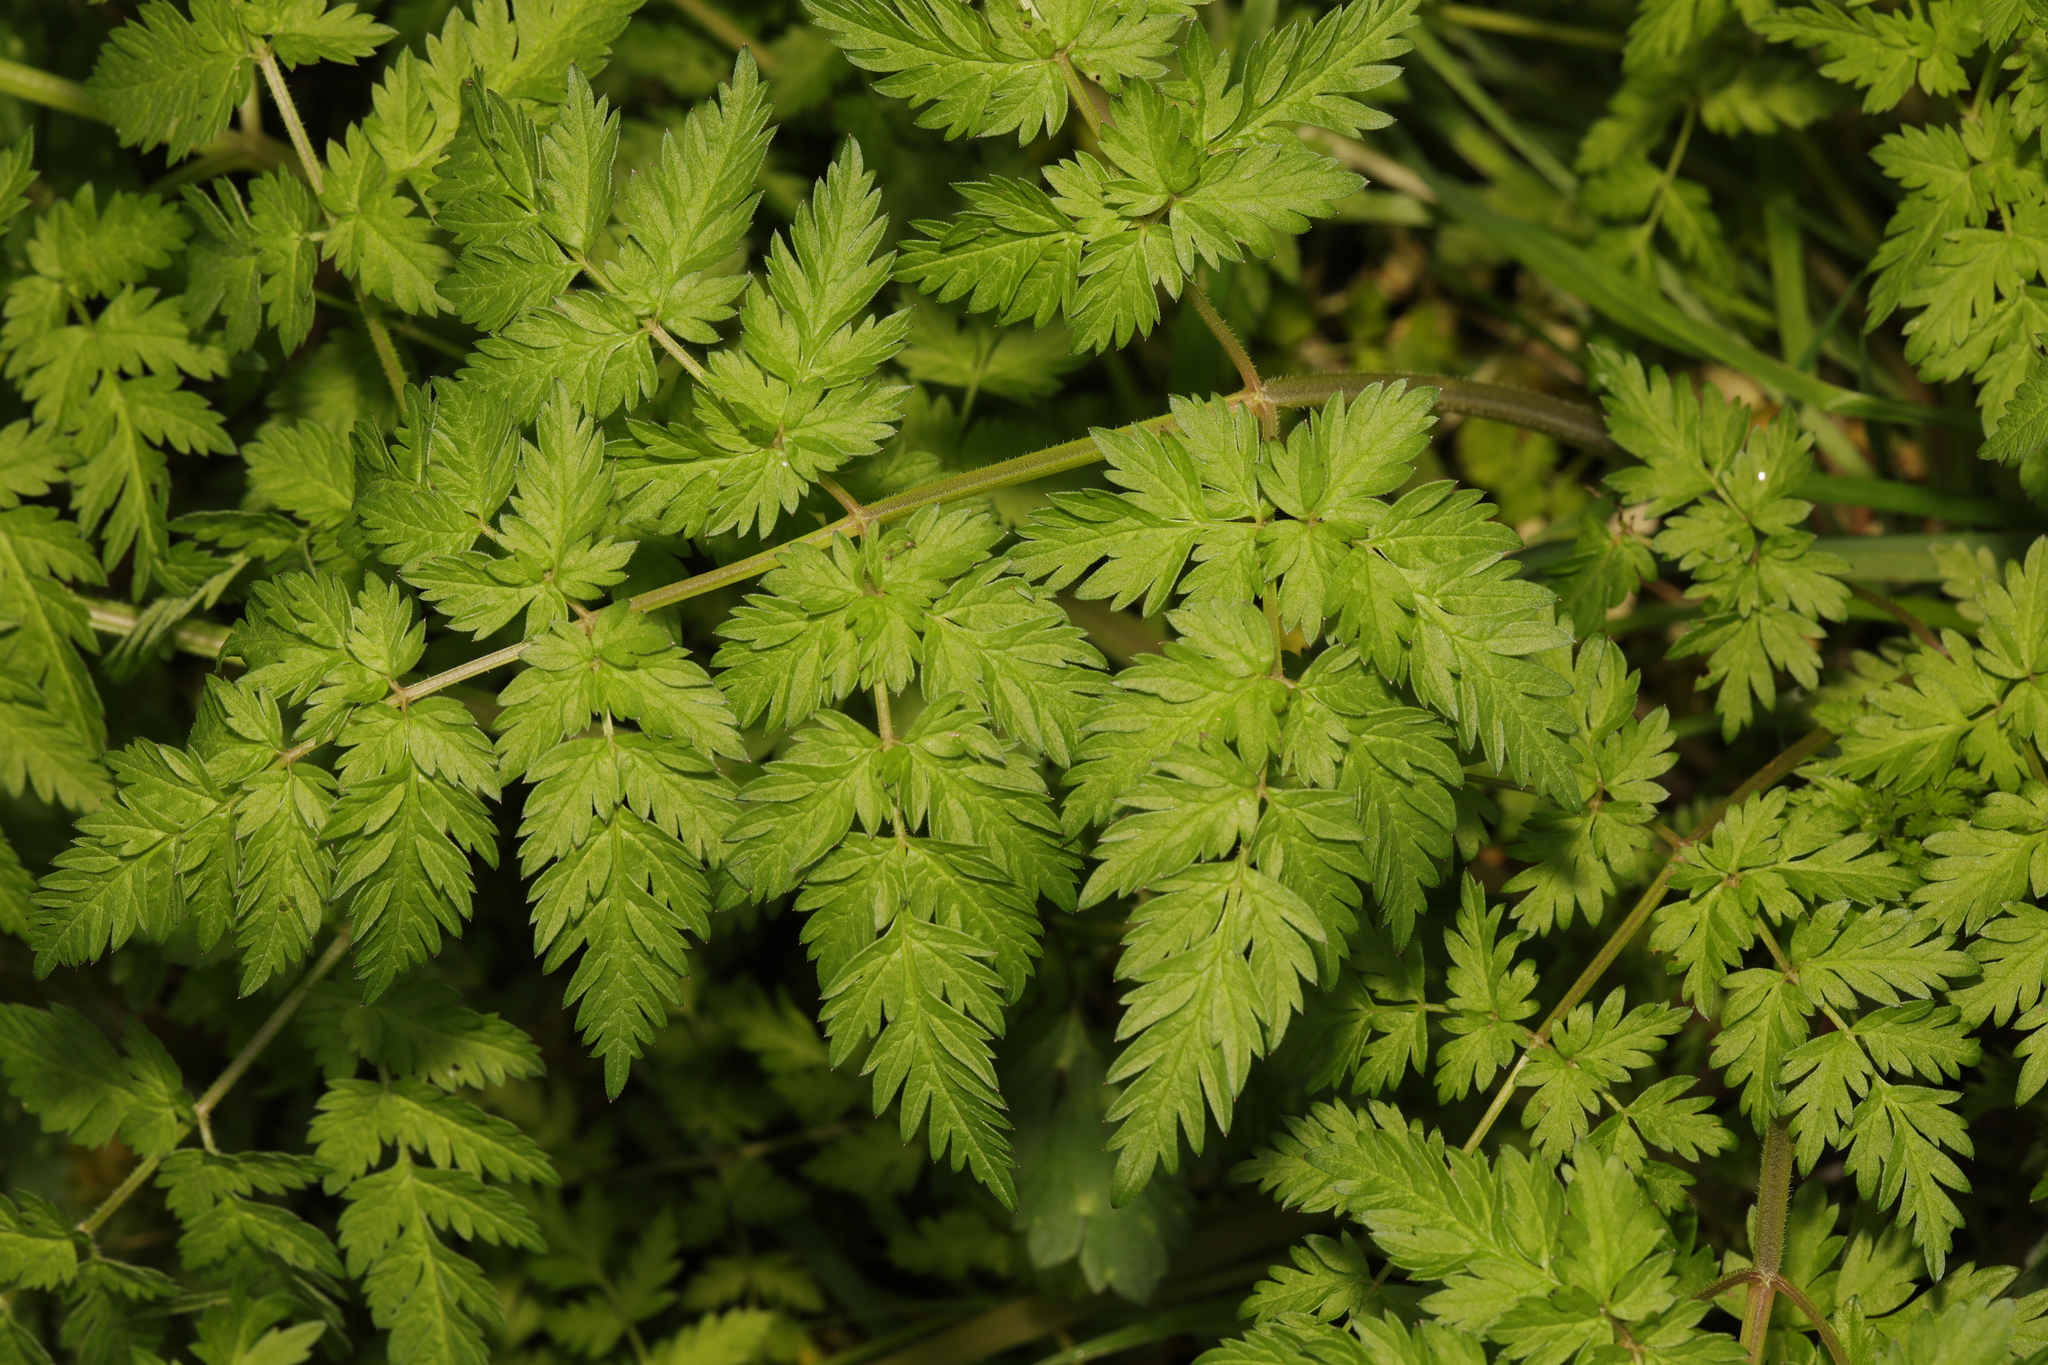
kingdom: Plantae
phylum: Tracheophyta
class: Magnoliopsida
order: Apiales
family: Apiaceae
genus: Anthriscus
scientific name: Anthriscus sylvestris
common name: Cow parsley
